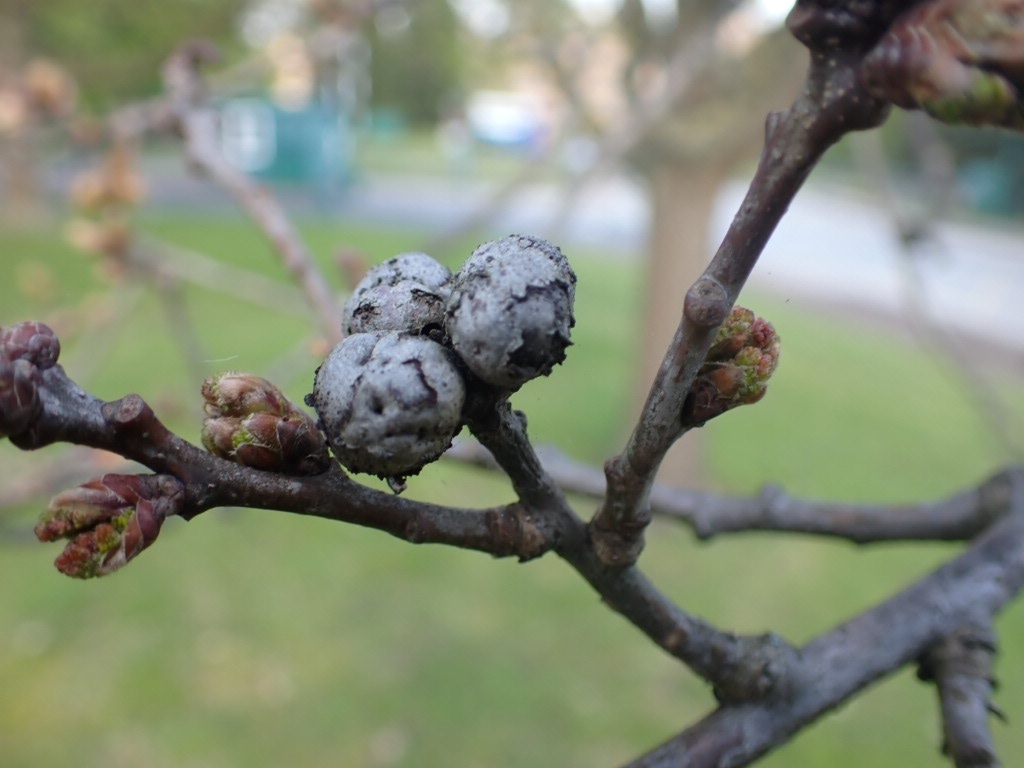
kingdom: Animalia
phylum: Arthropoda
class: Insecta
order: Hymenoptera
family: Cynipidae
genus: Andricus
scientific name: Andricus lignicolus
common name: Cola-nut gall
